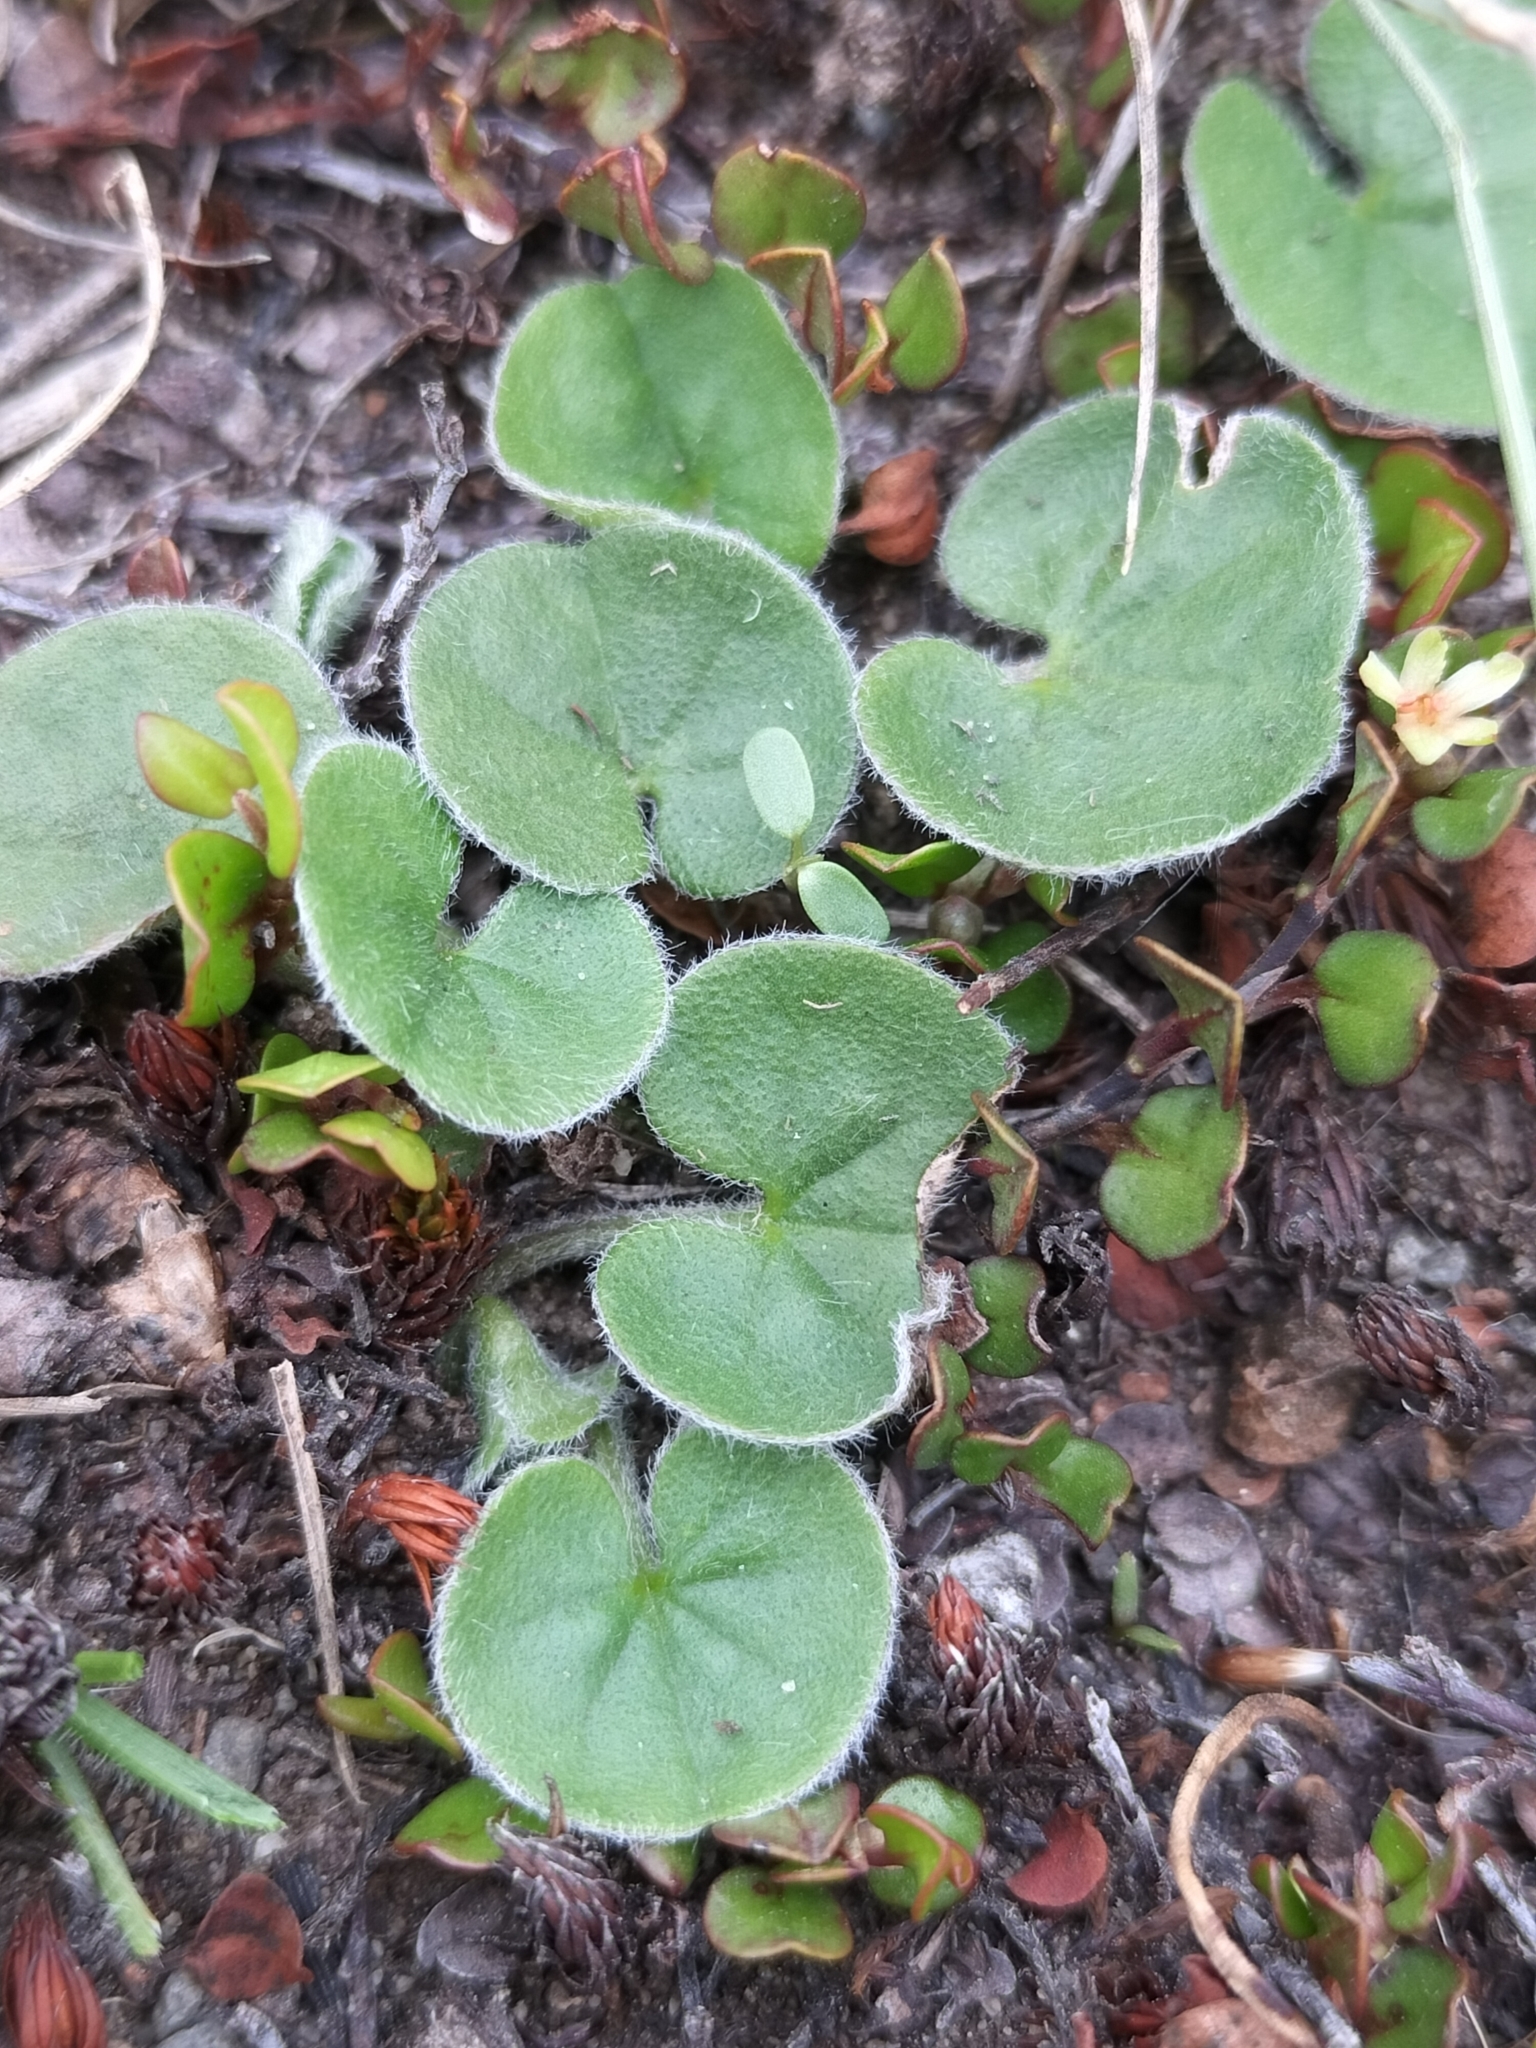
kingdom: Plantae
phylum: Tracheophyta
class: Magnoliopsida
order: Solanales
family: Convolvulaceae
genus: Dichondra
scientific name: Dichondra repens
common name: Kidneyweed
